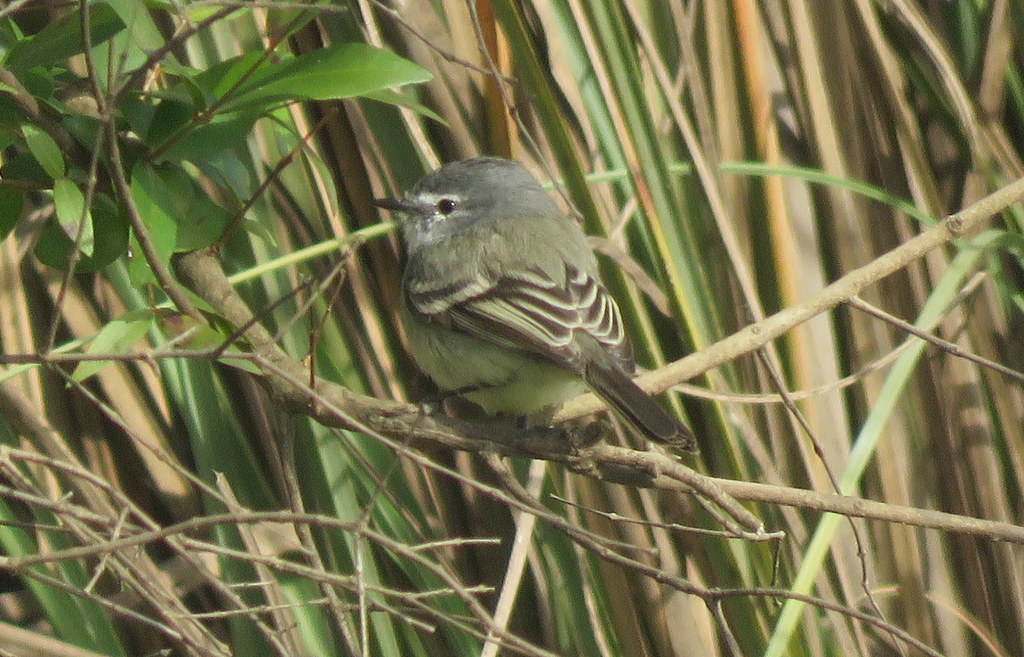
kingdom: Animalia
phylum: Chordata
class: Aves
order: Passeriformes
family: Tyrannidae
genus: Serpophaga
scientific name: Serpophaga subcristata
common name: White-crested tyrannulet
